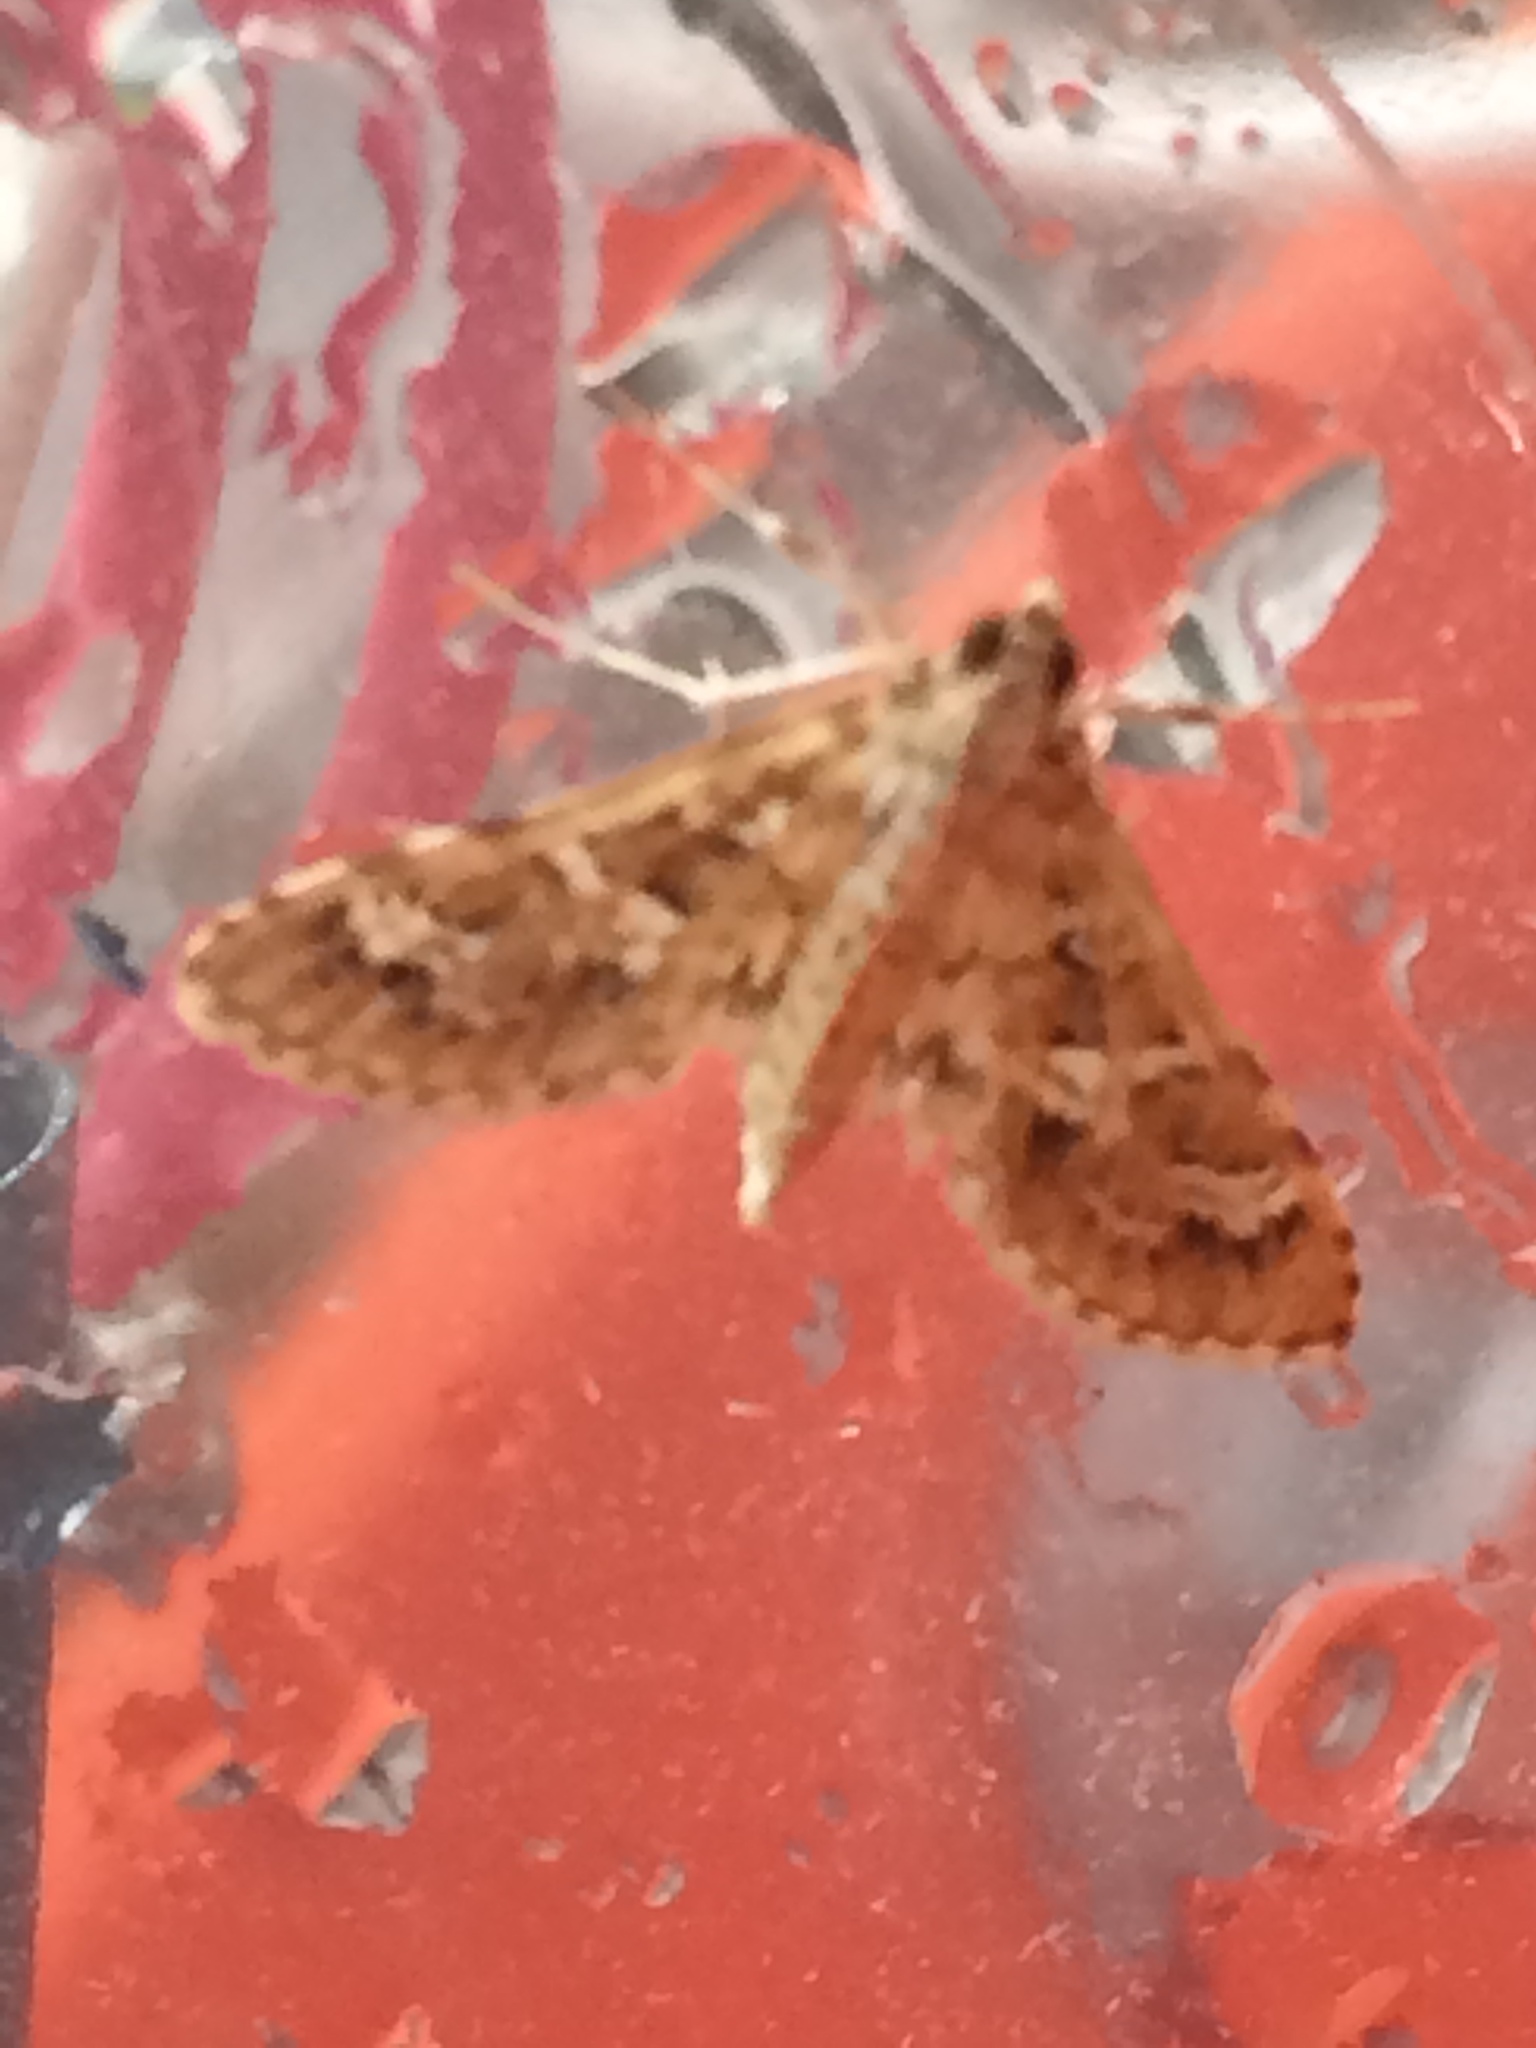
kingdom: Animalia
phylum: Arthropoda
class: Insecta
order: Lepidoptera
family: Crambidae
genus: Samea
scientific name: Samea multiplicalis
